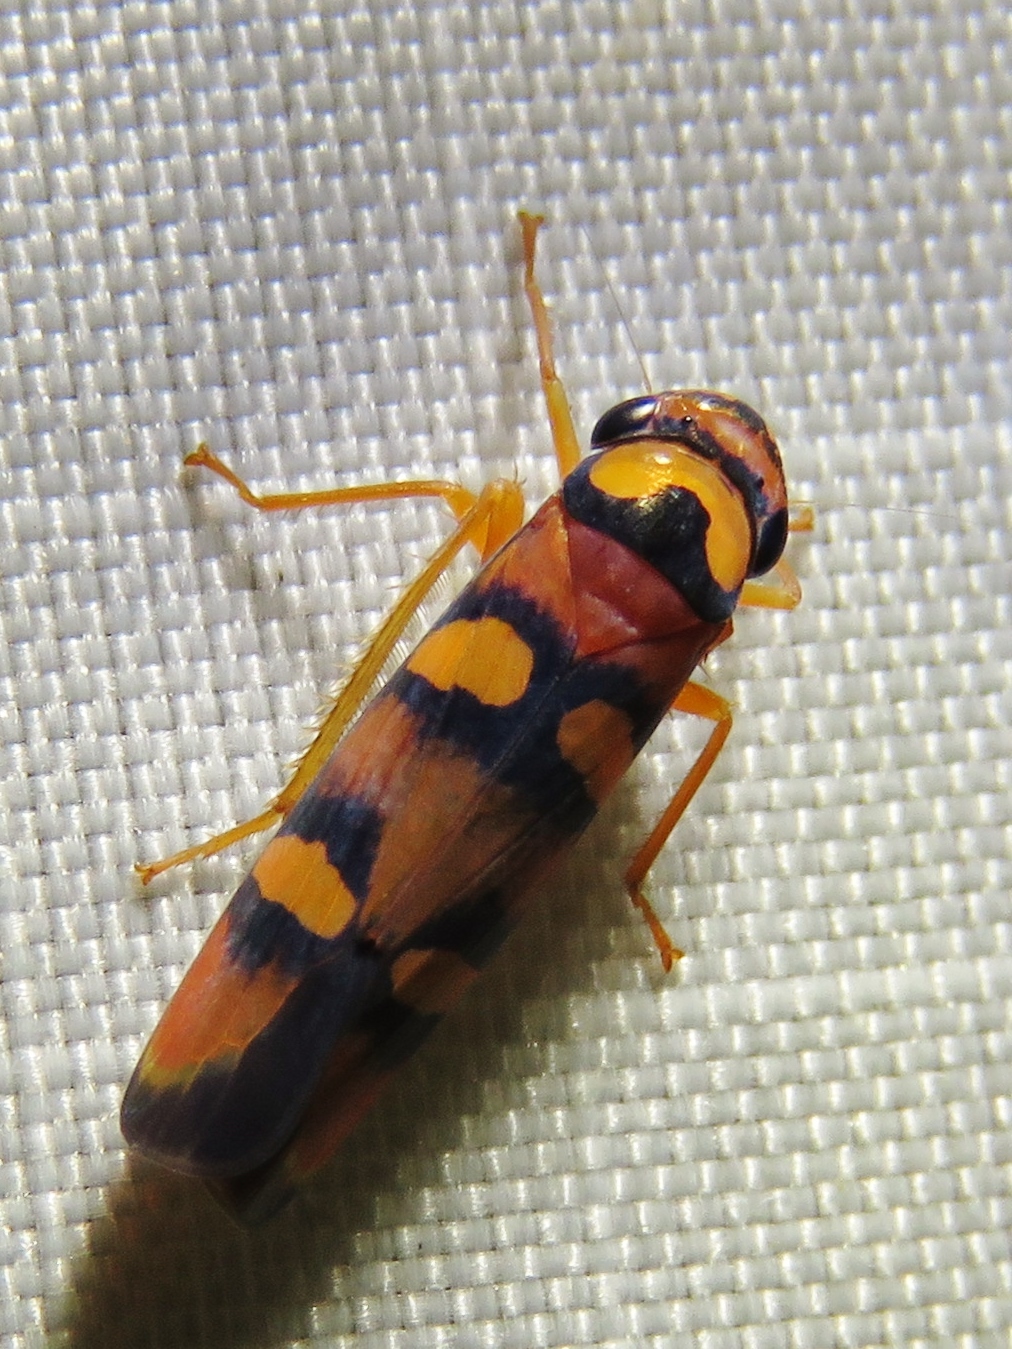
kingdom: Animalia
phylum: Arthropoda
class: Insecta
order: Hemiptera
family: Cicadellidae
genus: Pawiloma
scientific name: Pawiloma jucunda
